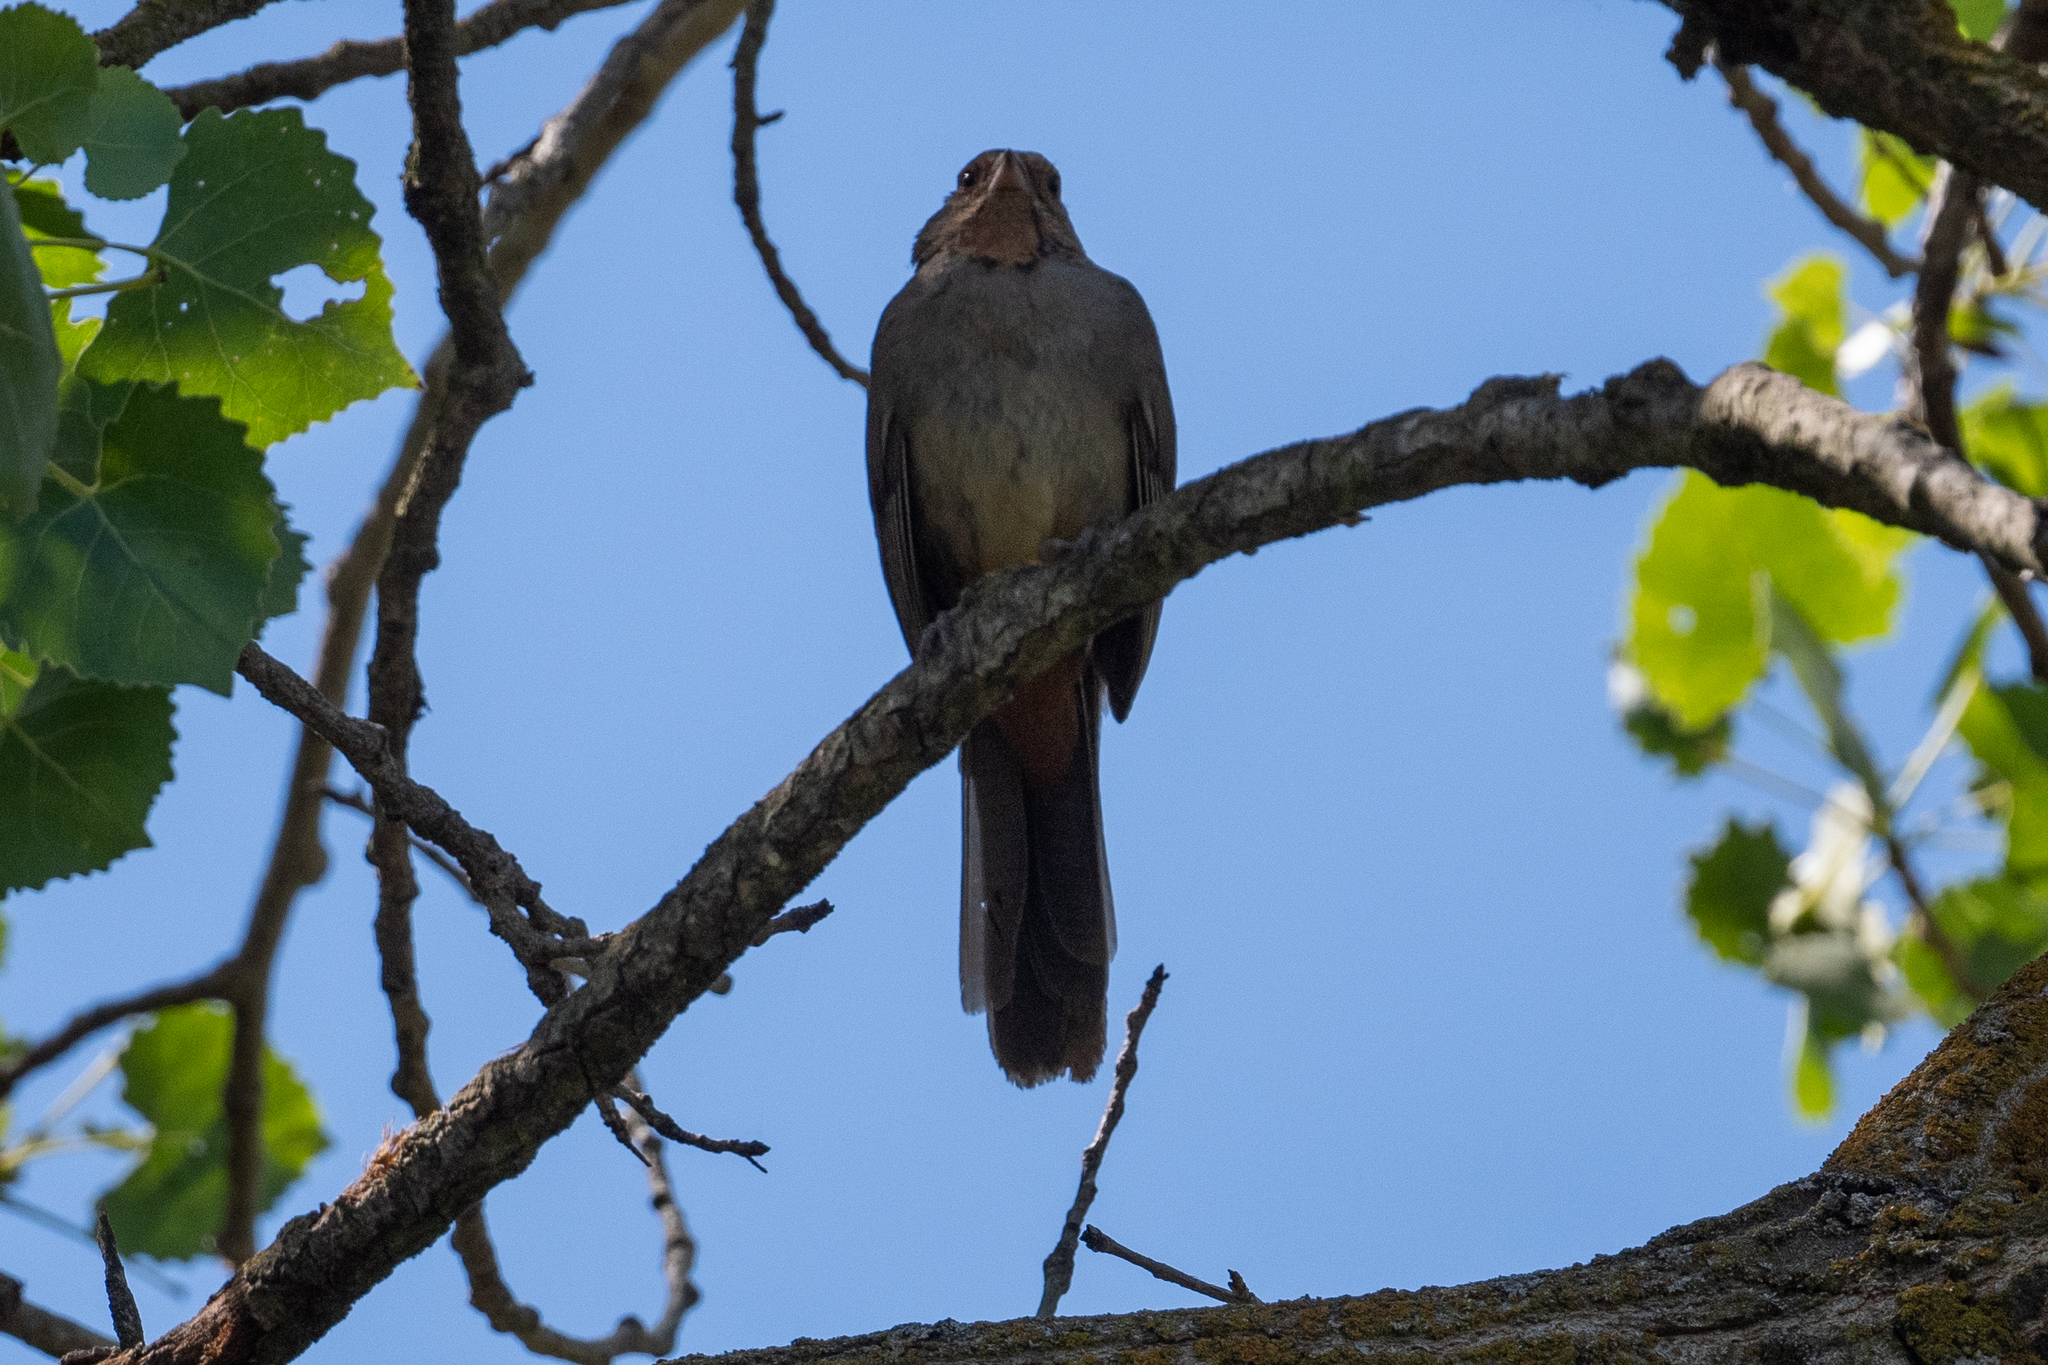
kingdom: Animalia
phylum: Chordata
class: Aves
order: Passeriformes
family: Passerellidae
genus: Melozone
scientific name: Melozone crissalis
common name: California towhee
